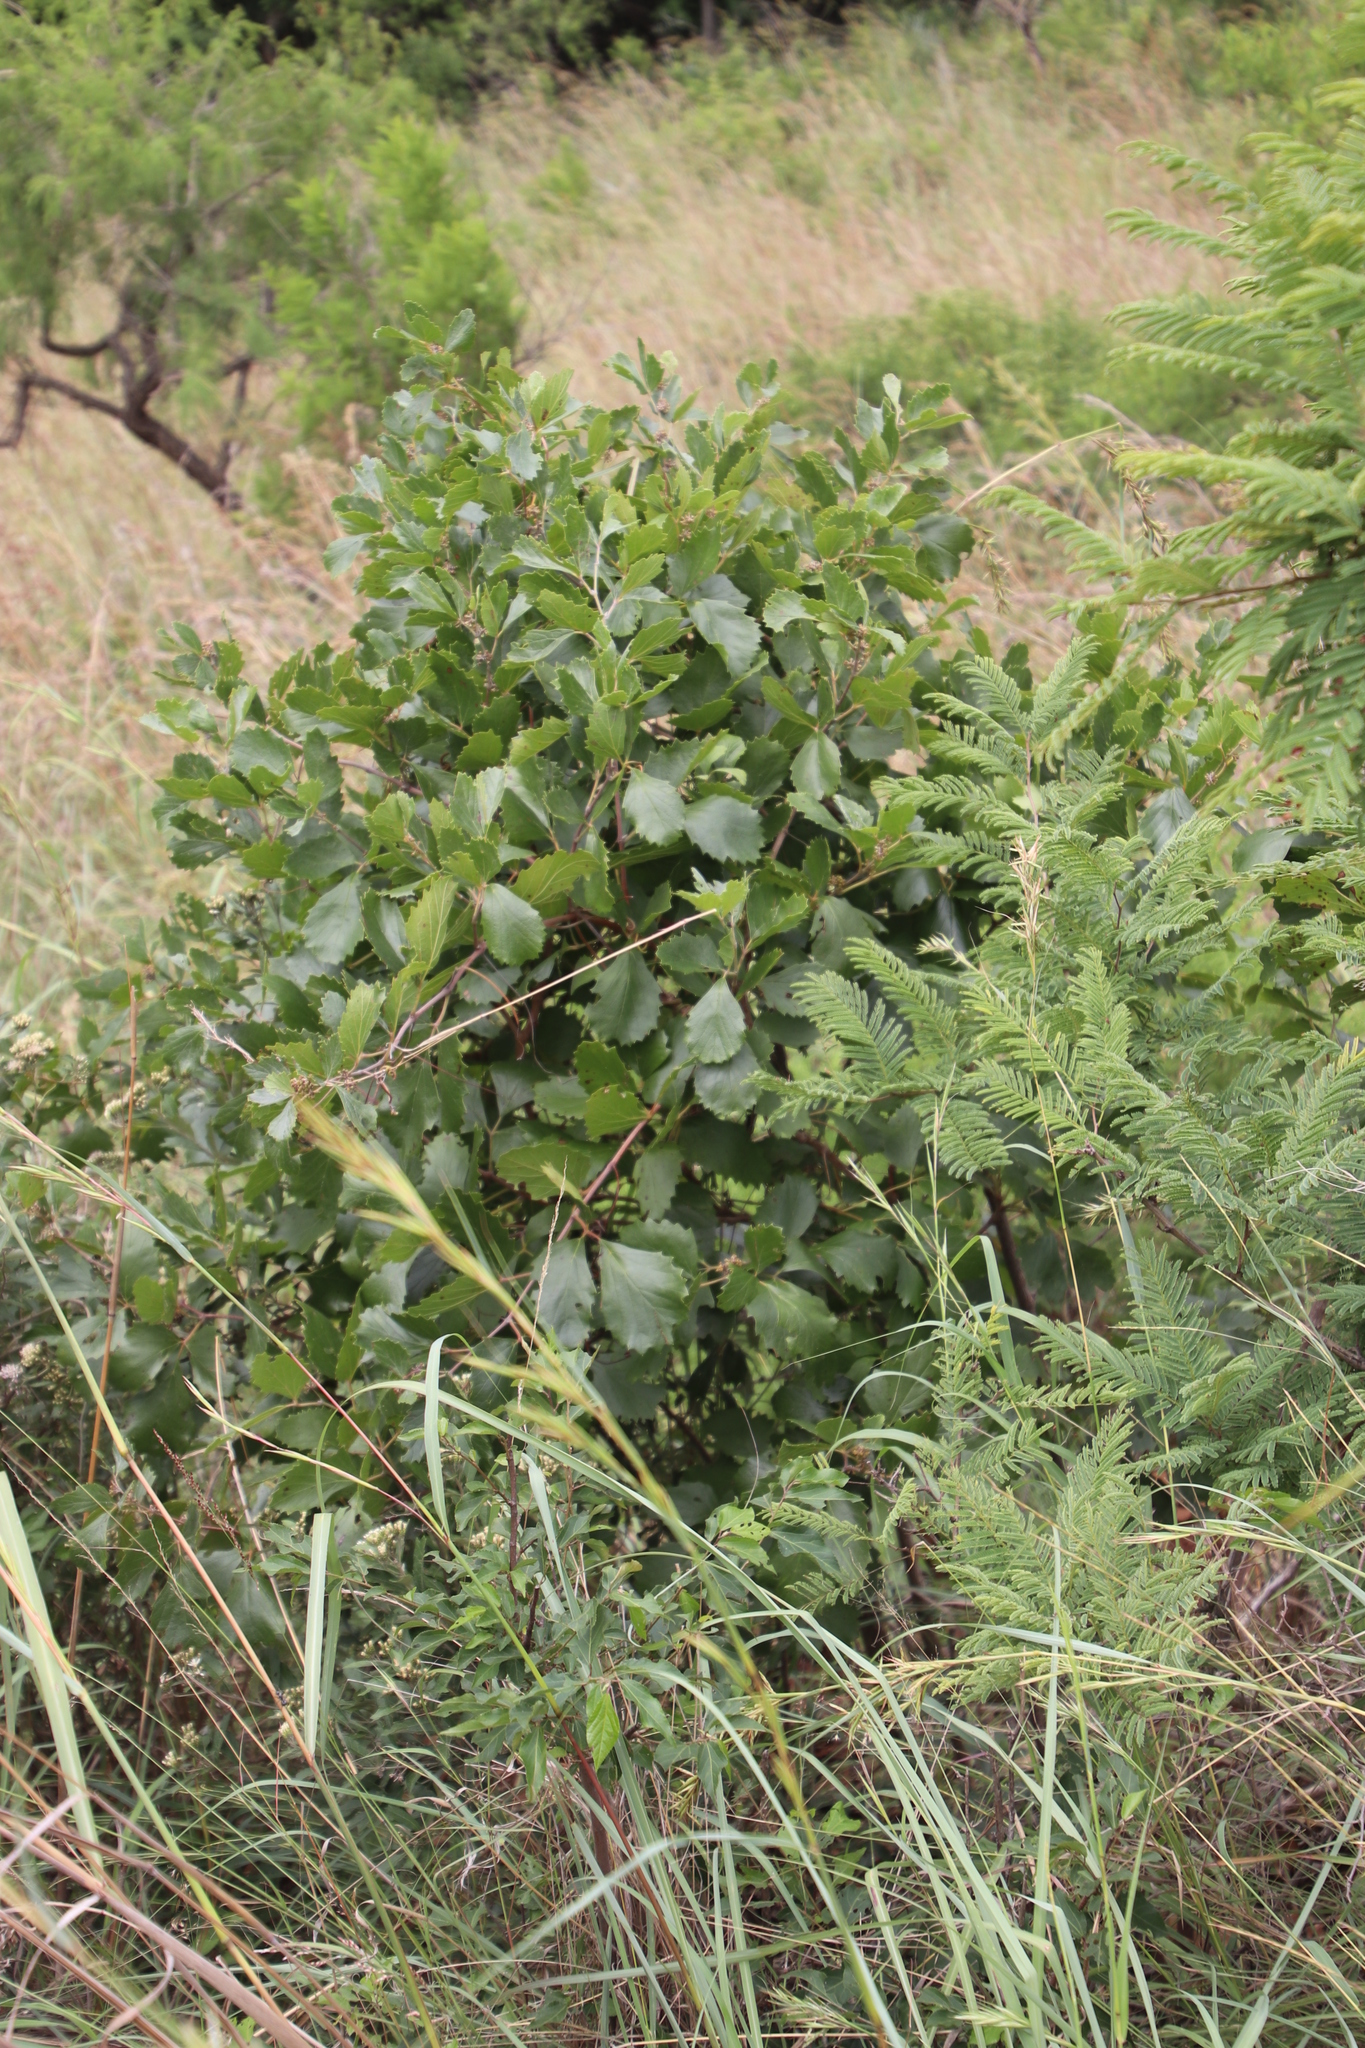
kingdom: Plantae
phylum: Tracheophyta
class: Magnoliopsida
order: Vitales
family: Vitaceae
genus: Rhoicissus
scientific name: Rhoicissus tridentata
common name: Common forest grape
